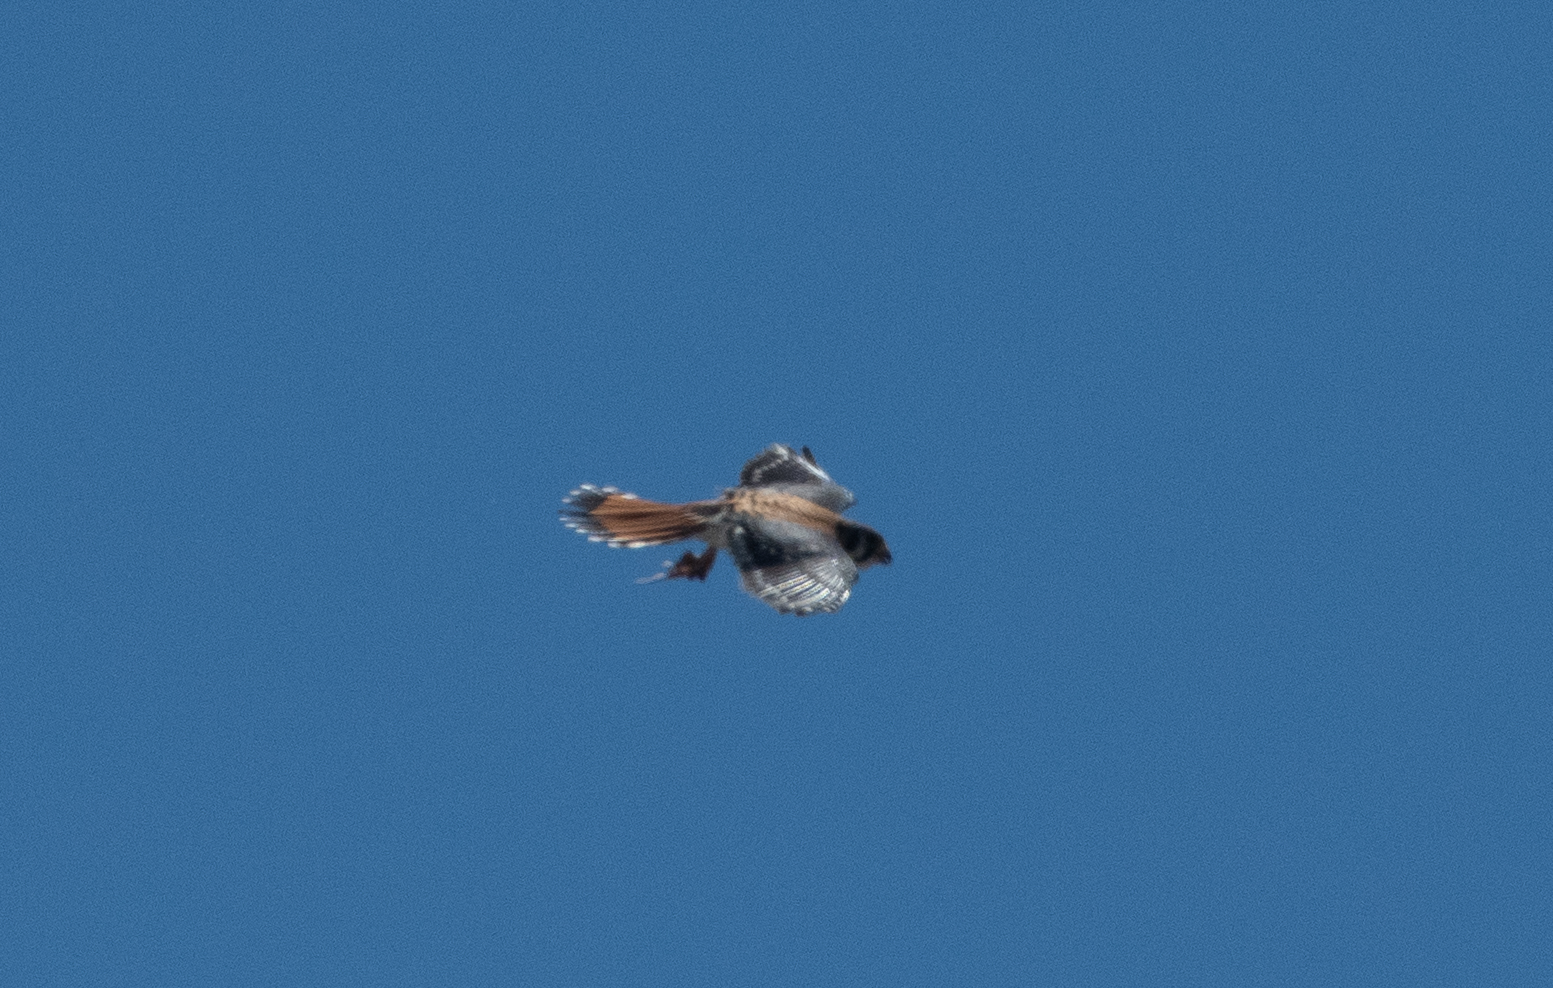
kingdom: Animalia
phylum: Chordata
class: Aves
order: Falconiformes
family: Falconidae
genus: Falco
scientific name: Falco sparverius
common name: American kestrel
